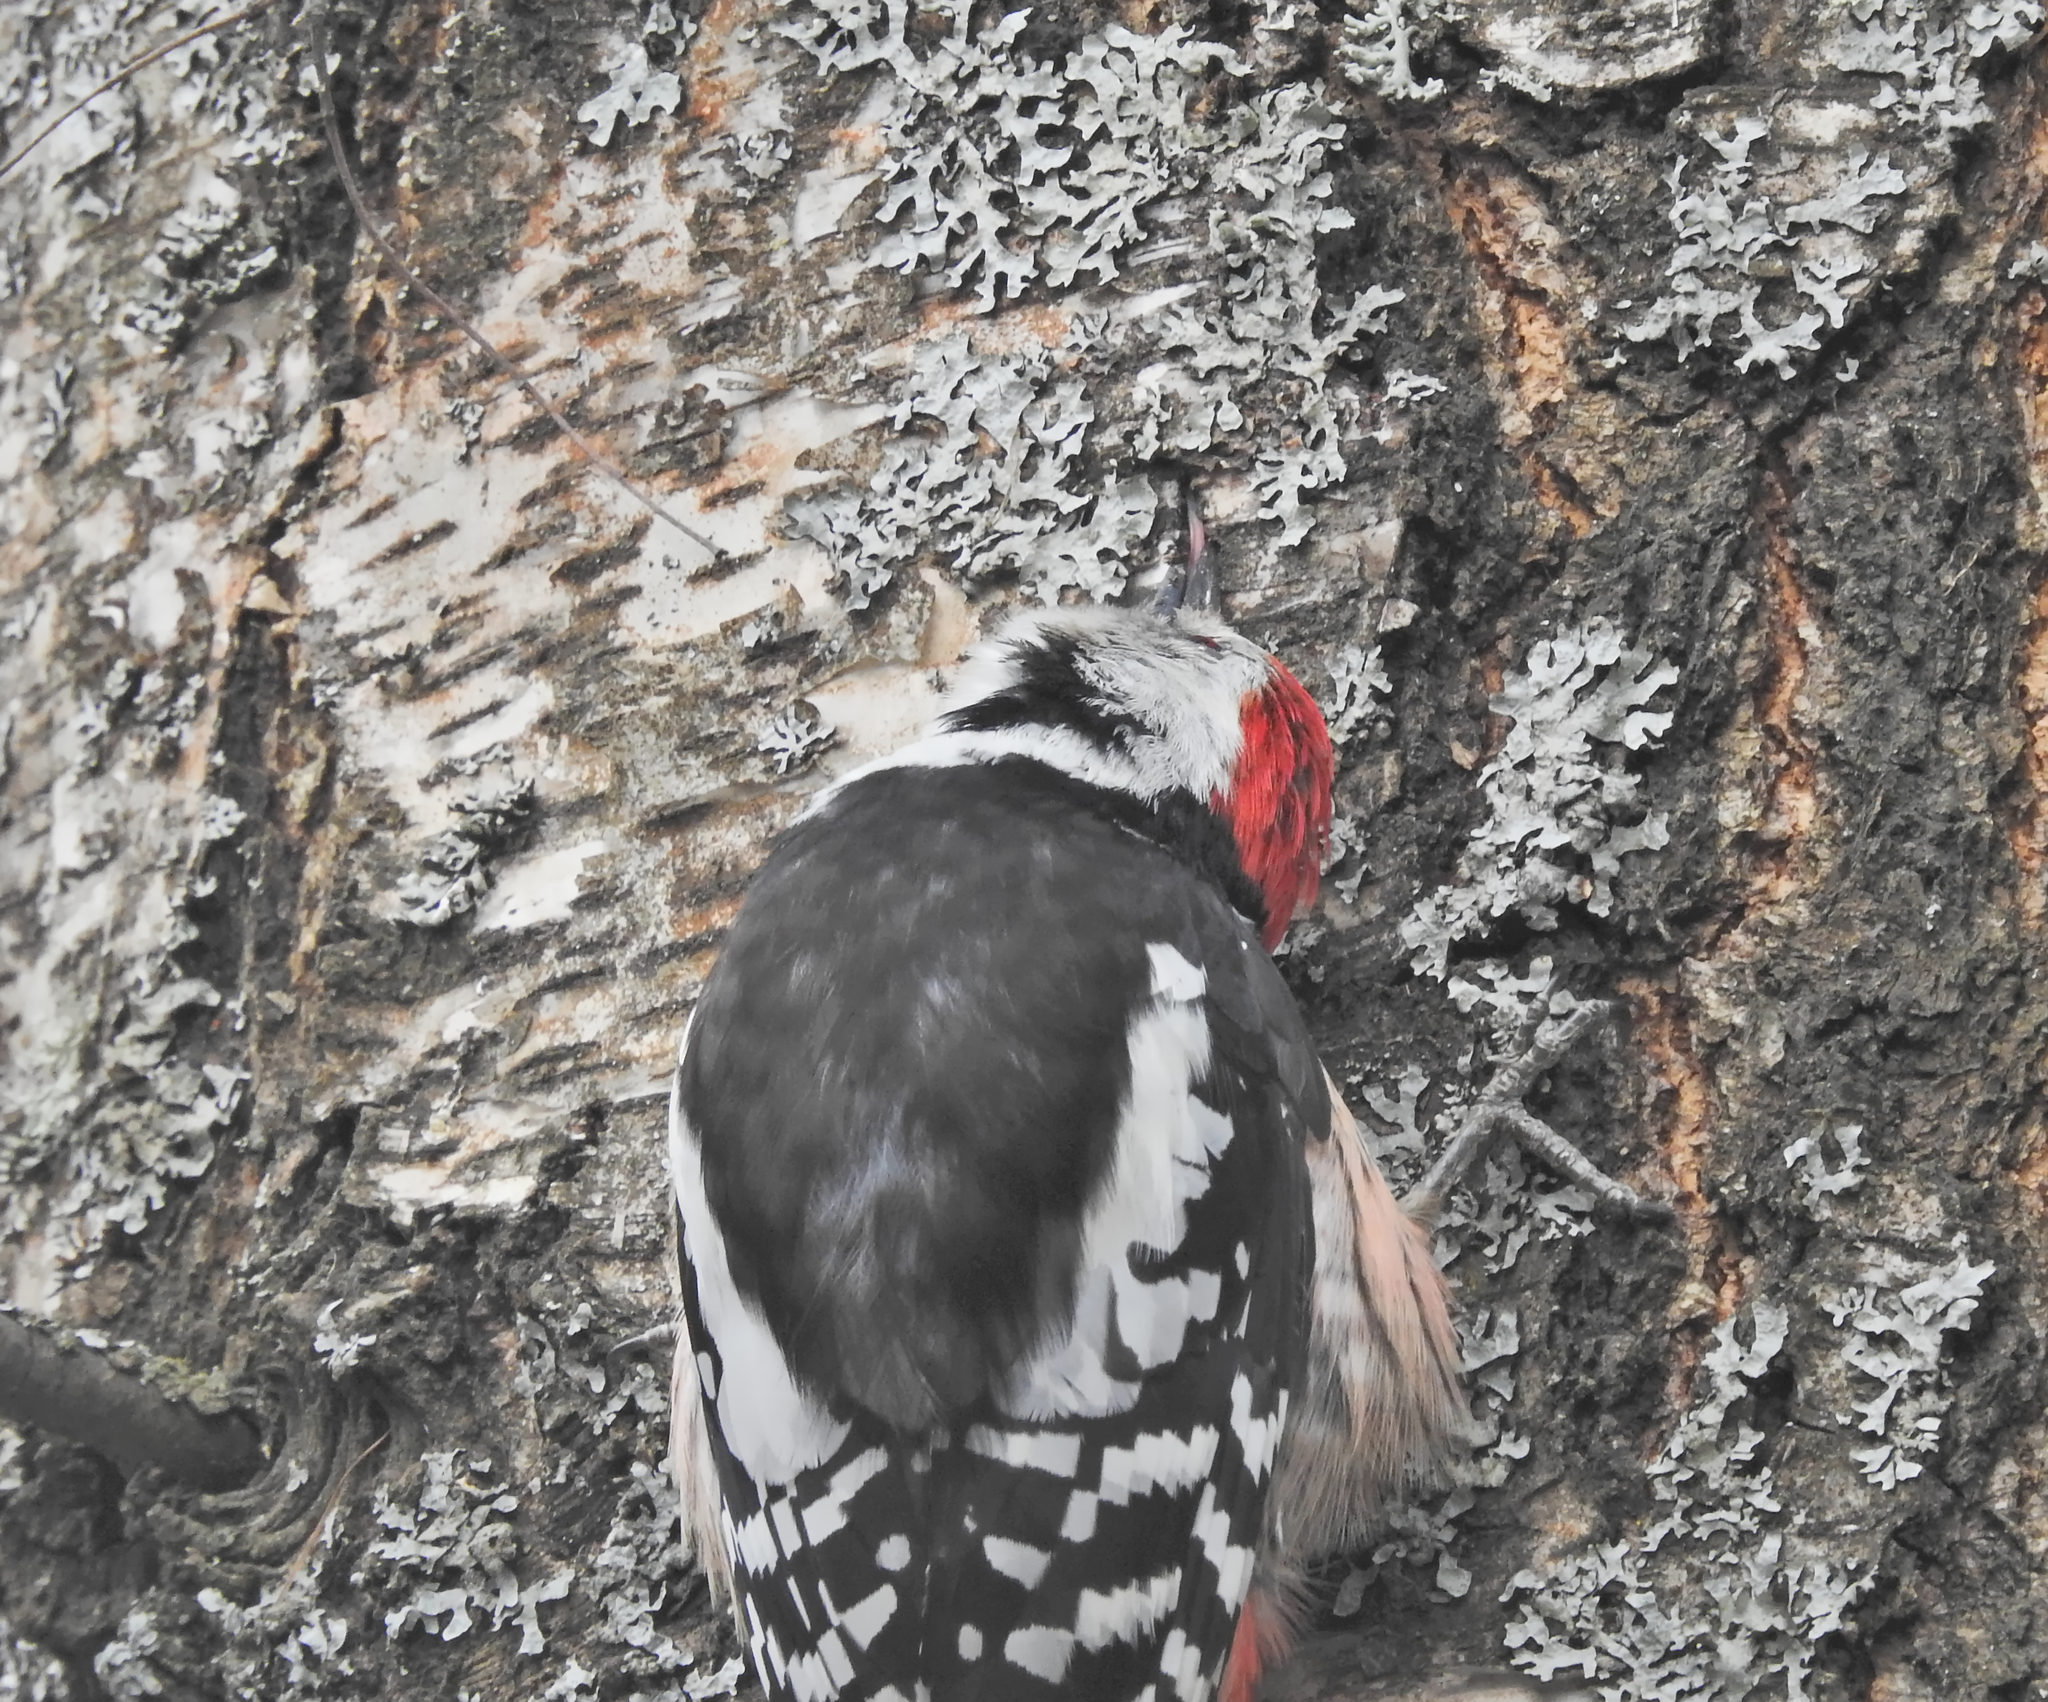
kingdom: Animalia
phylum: Chordata
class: Aves
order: Piciformes
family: Picidae
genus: Dendrocoptes
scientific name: Dendrocoptes medius
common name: Middle spotted woodpecker
